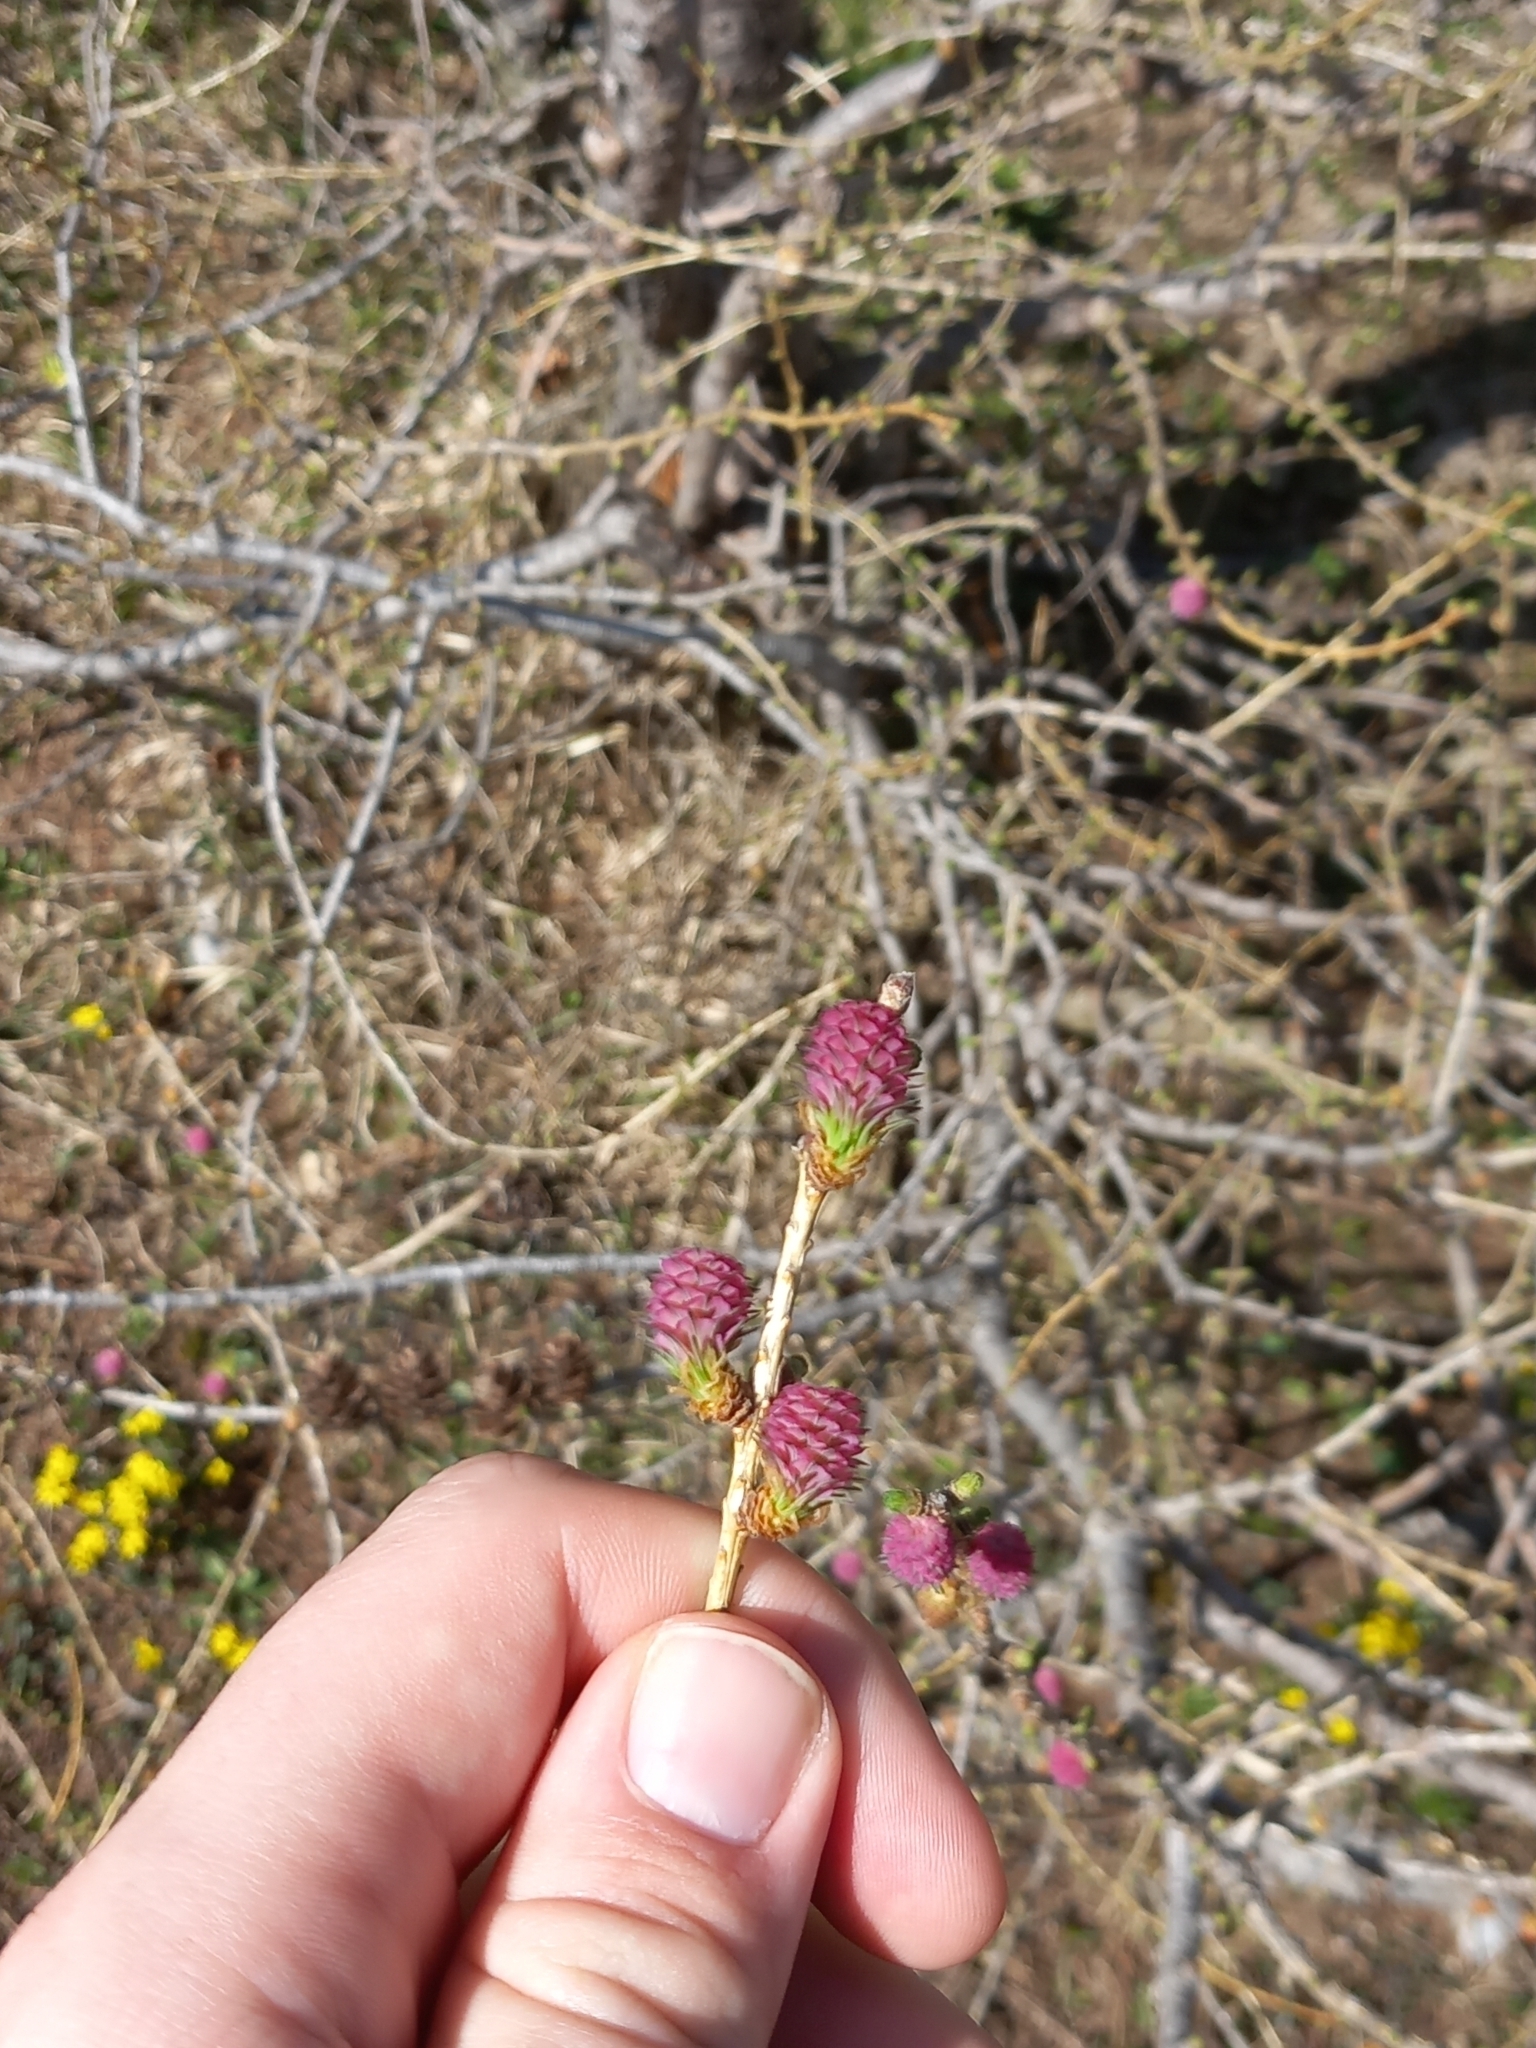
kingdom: Plantae
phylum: Tracheophyta
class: Pinopsida
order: Pinales
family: Pinaceae
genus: Larix
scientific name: Larix decidua
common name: European larch
